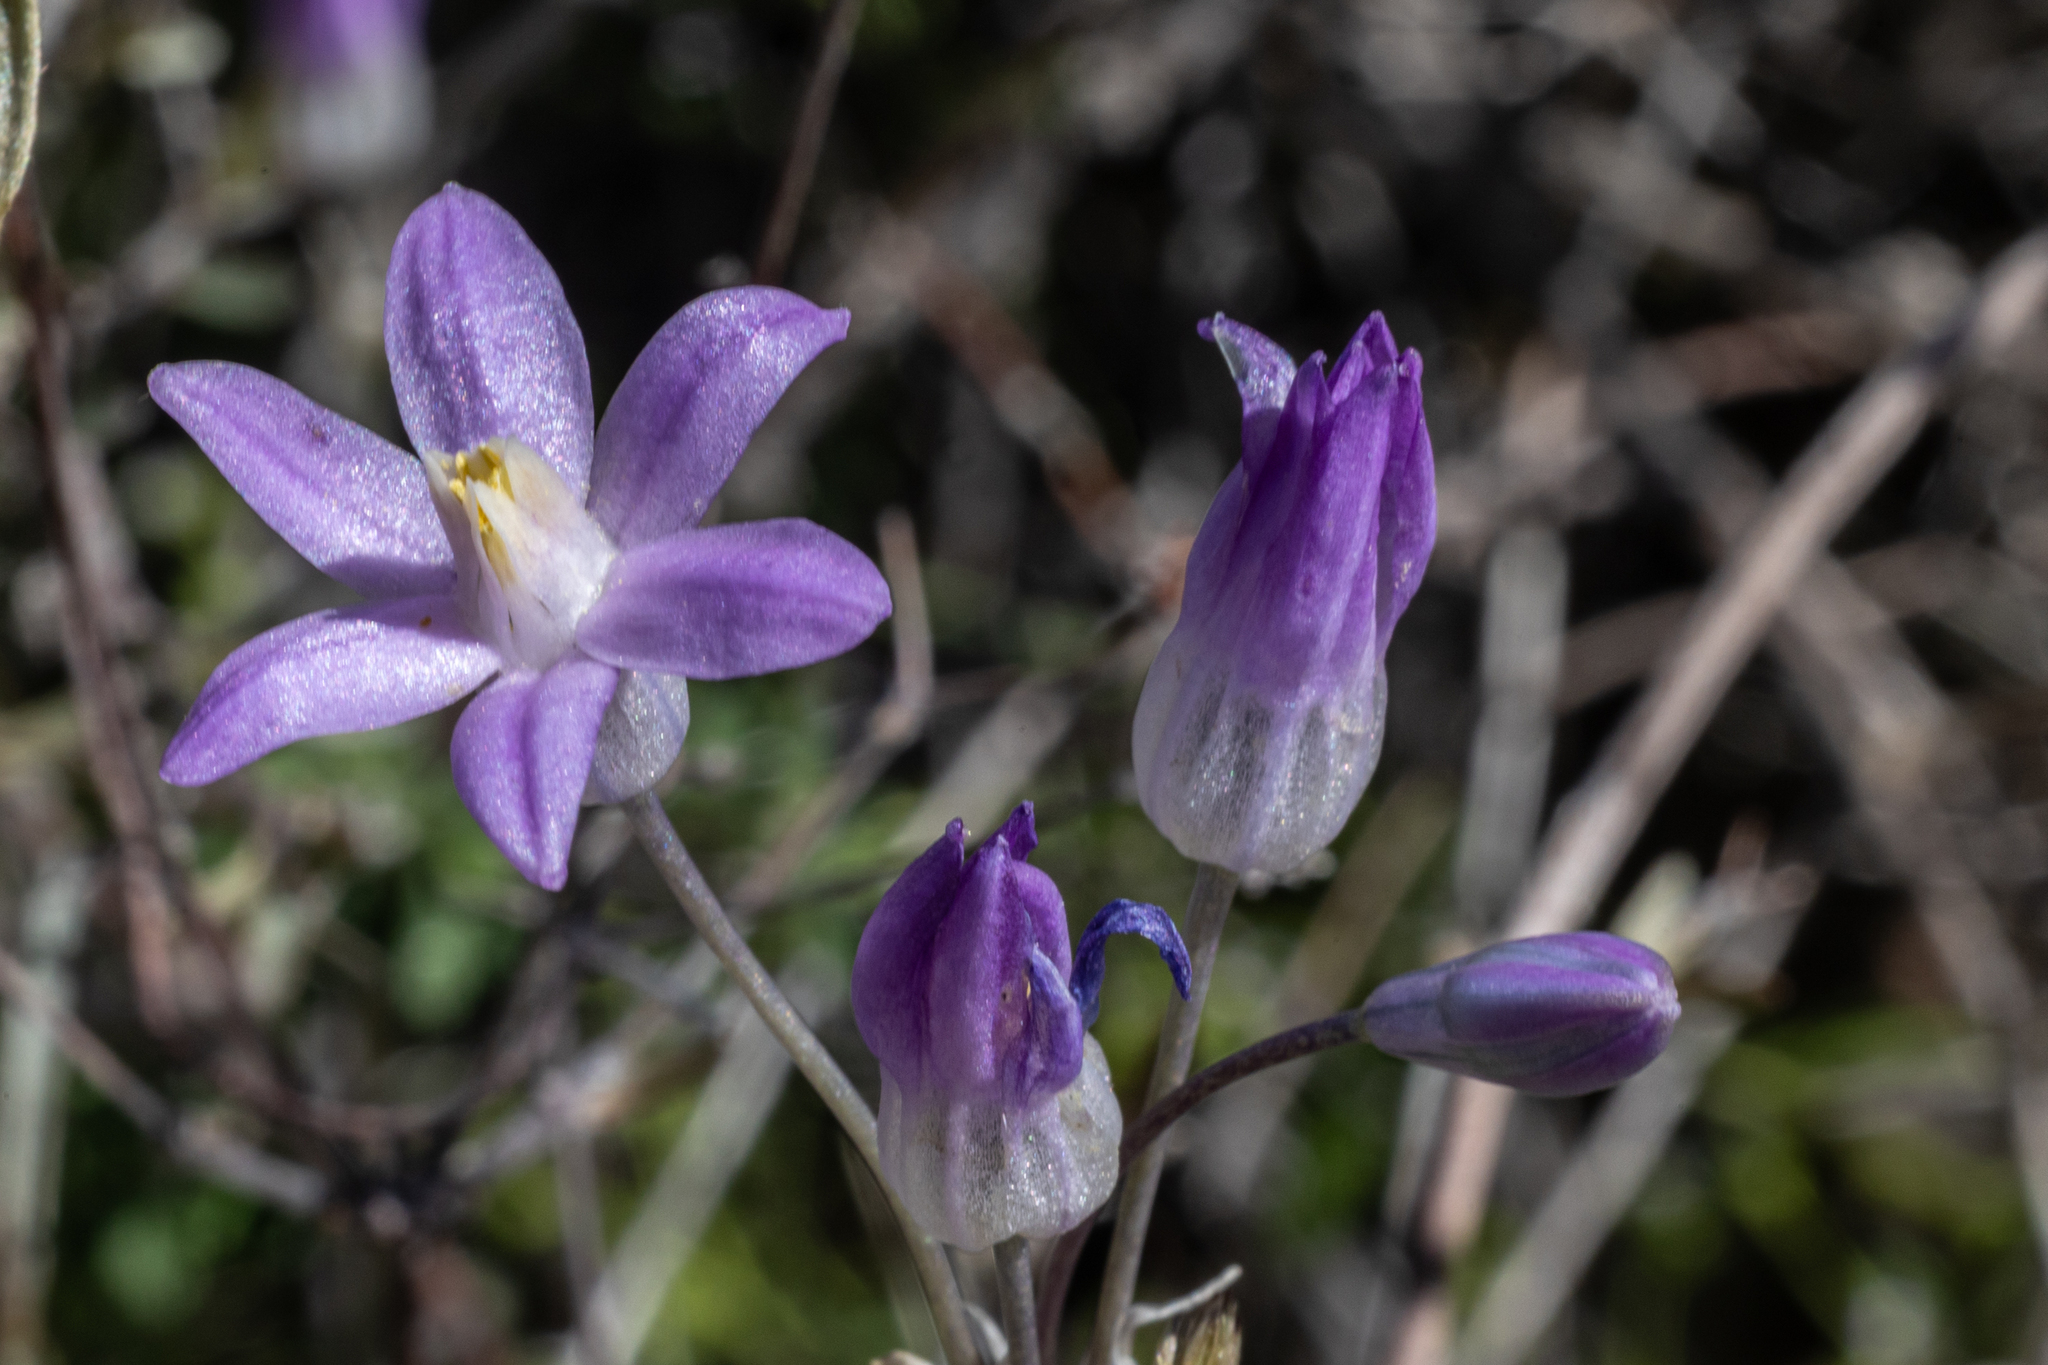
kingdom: Plantae
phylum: Tracheophyta
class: Liliopsida
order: Asparagales
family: Asparagaceae
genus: Dipterostemon
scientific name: Dipterostemon capitatus
